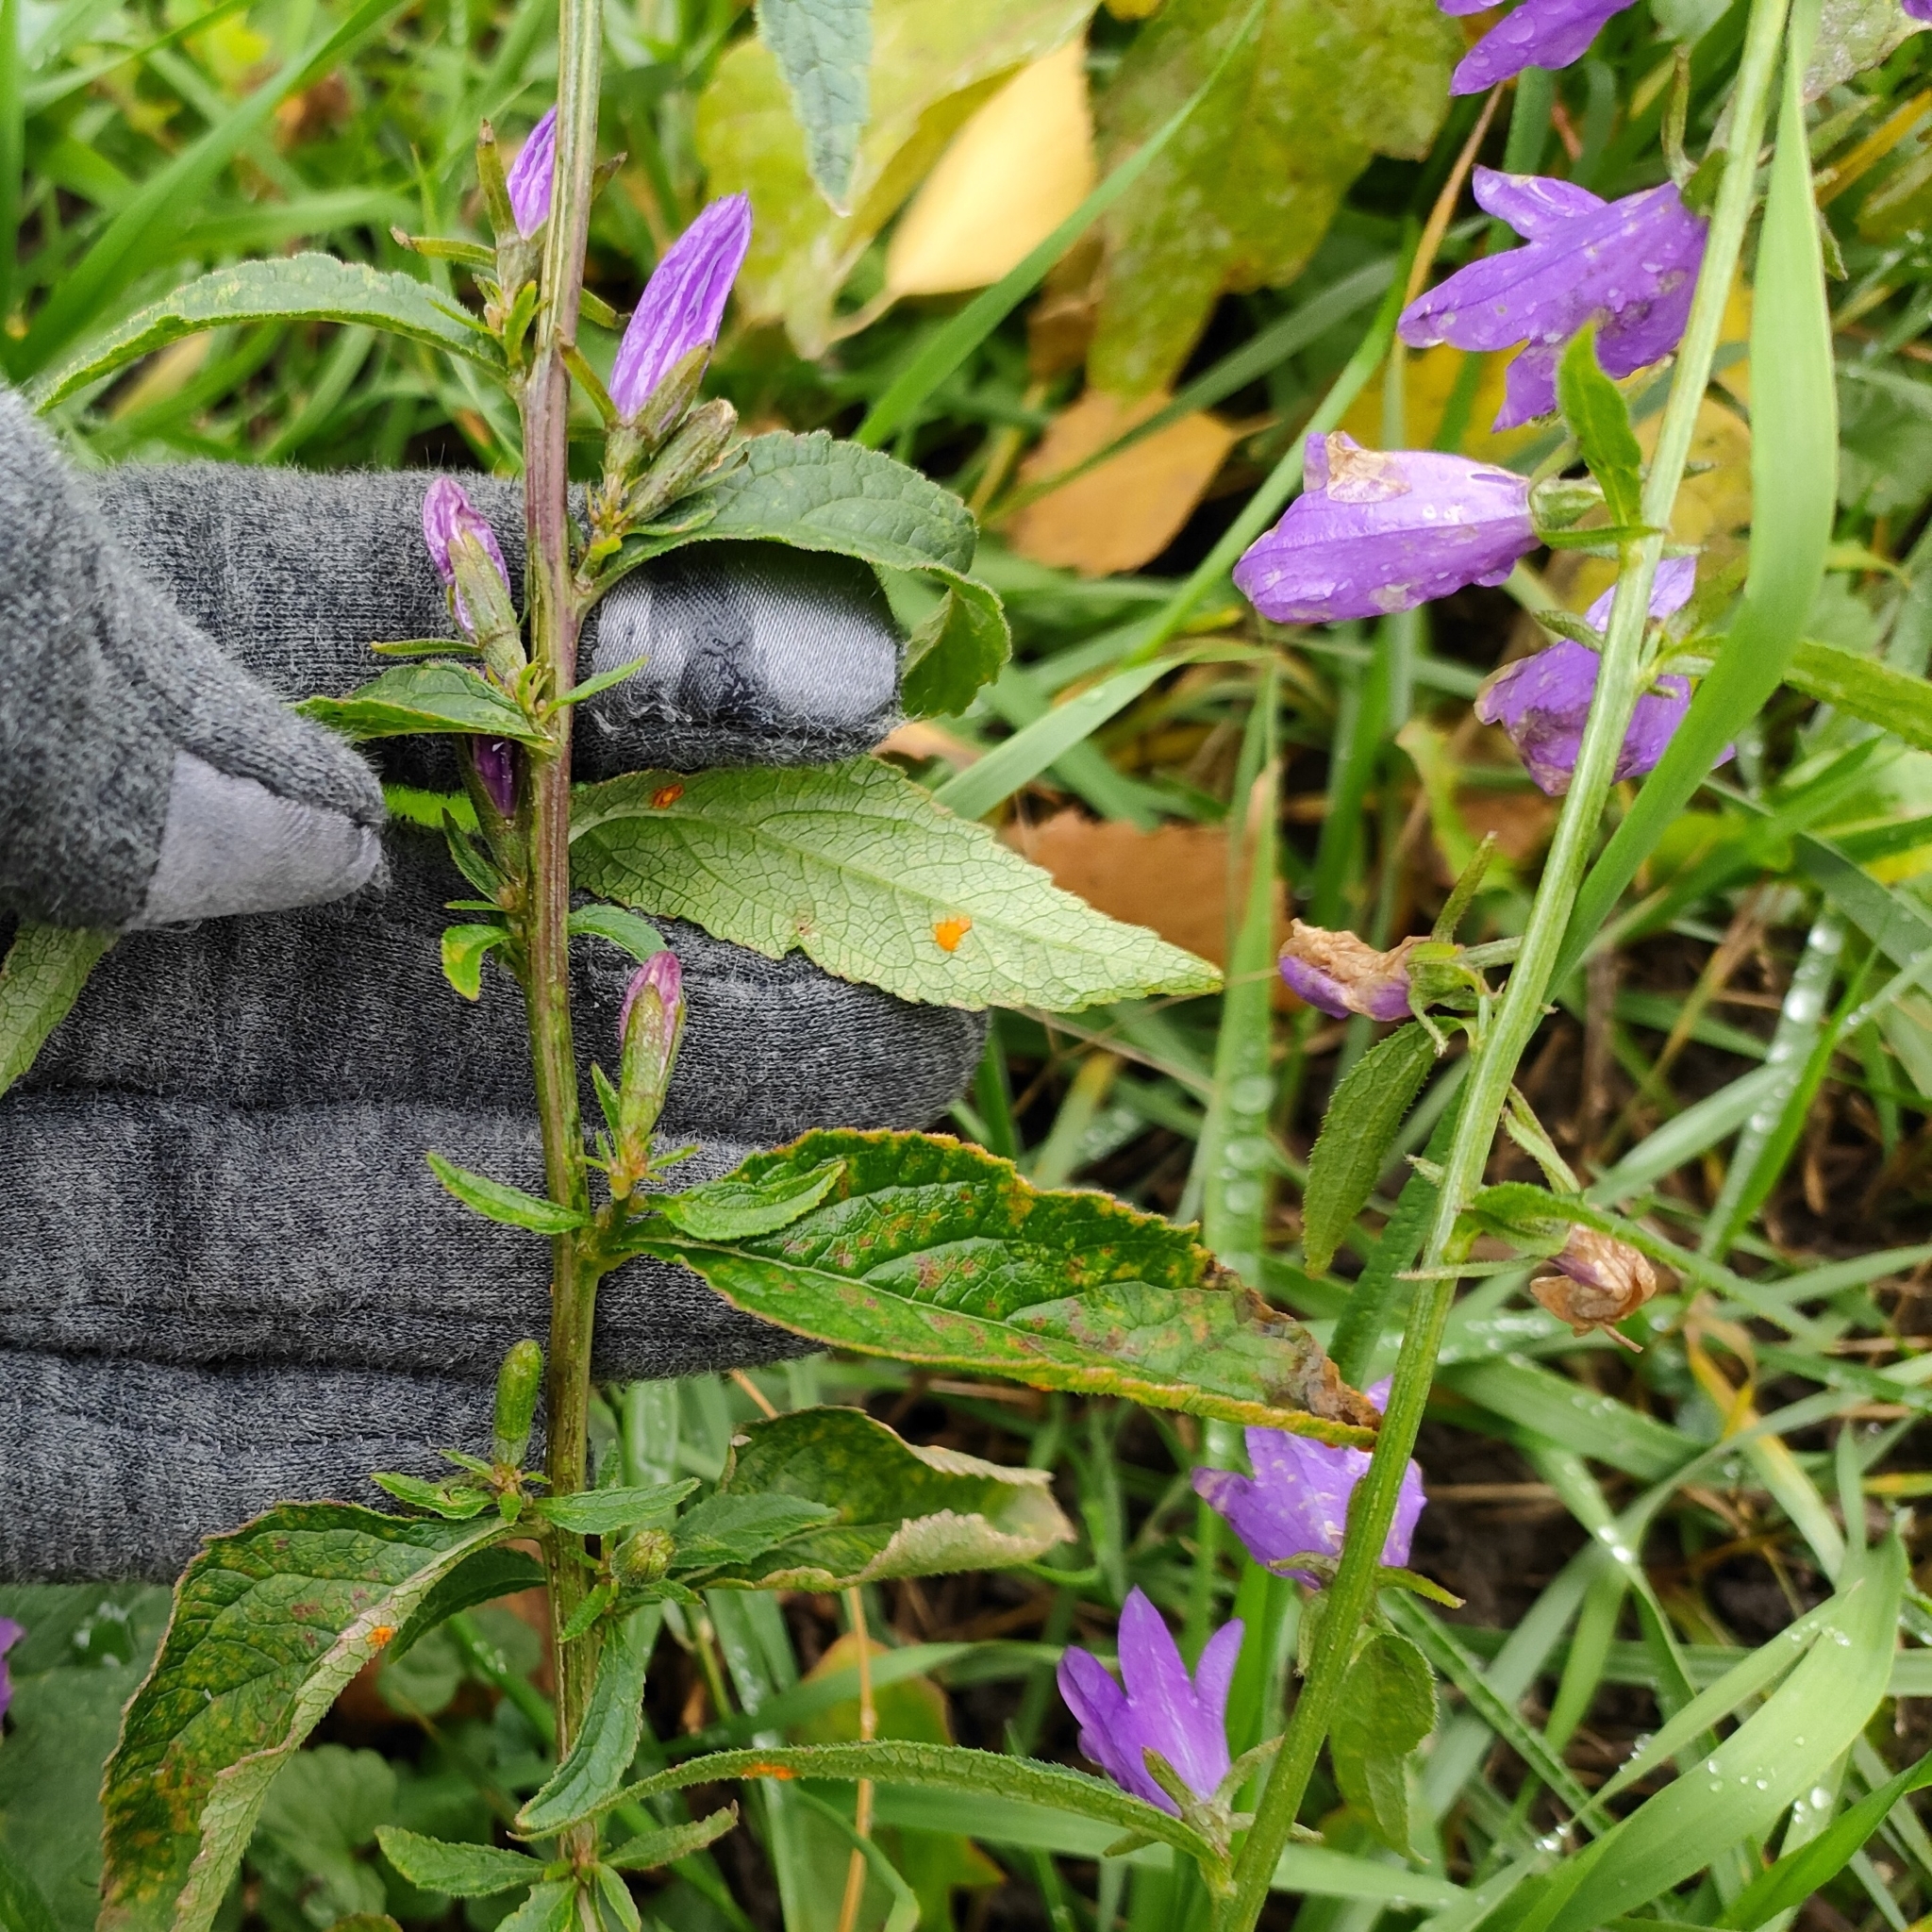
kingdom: Plantae
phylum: Tracheophyta
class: Magnoliopsida
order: Asterales
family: Campanulaceae
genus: Campanula
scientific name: Campanula rapunculoides
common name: Creeping bellflower
